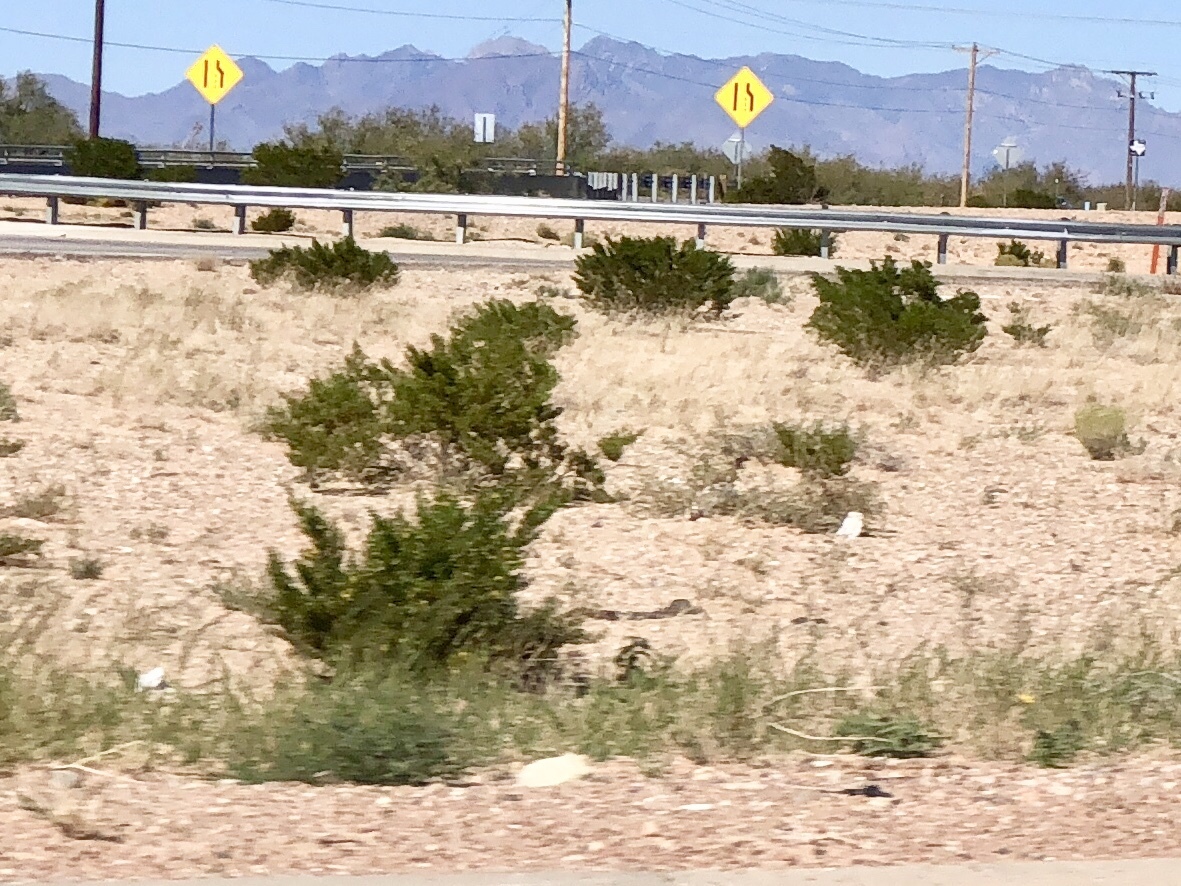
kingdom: Plantae
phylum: Tracheophyta
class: Magnoliopsida
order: Zygophyllales
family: Zygophyllaceae
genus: Larrea
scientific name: Larrea tridentata
